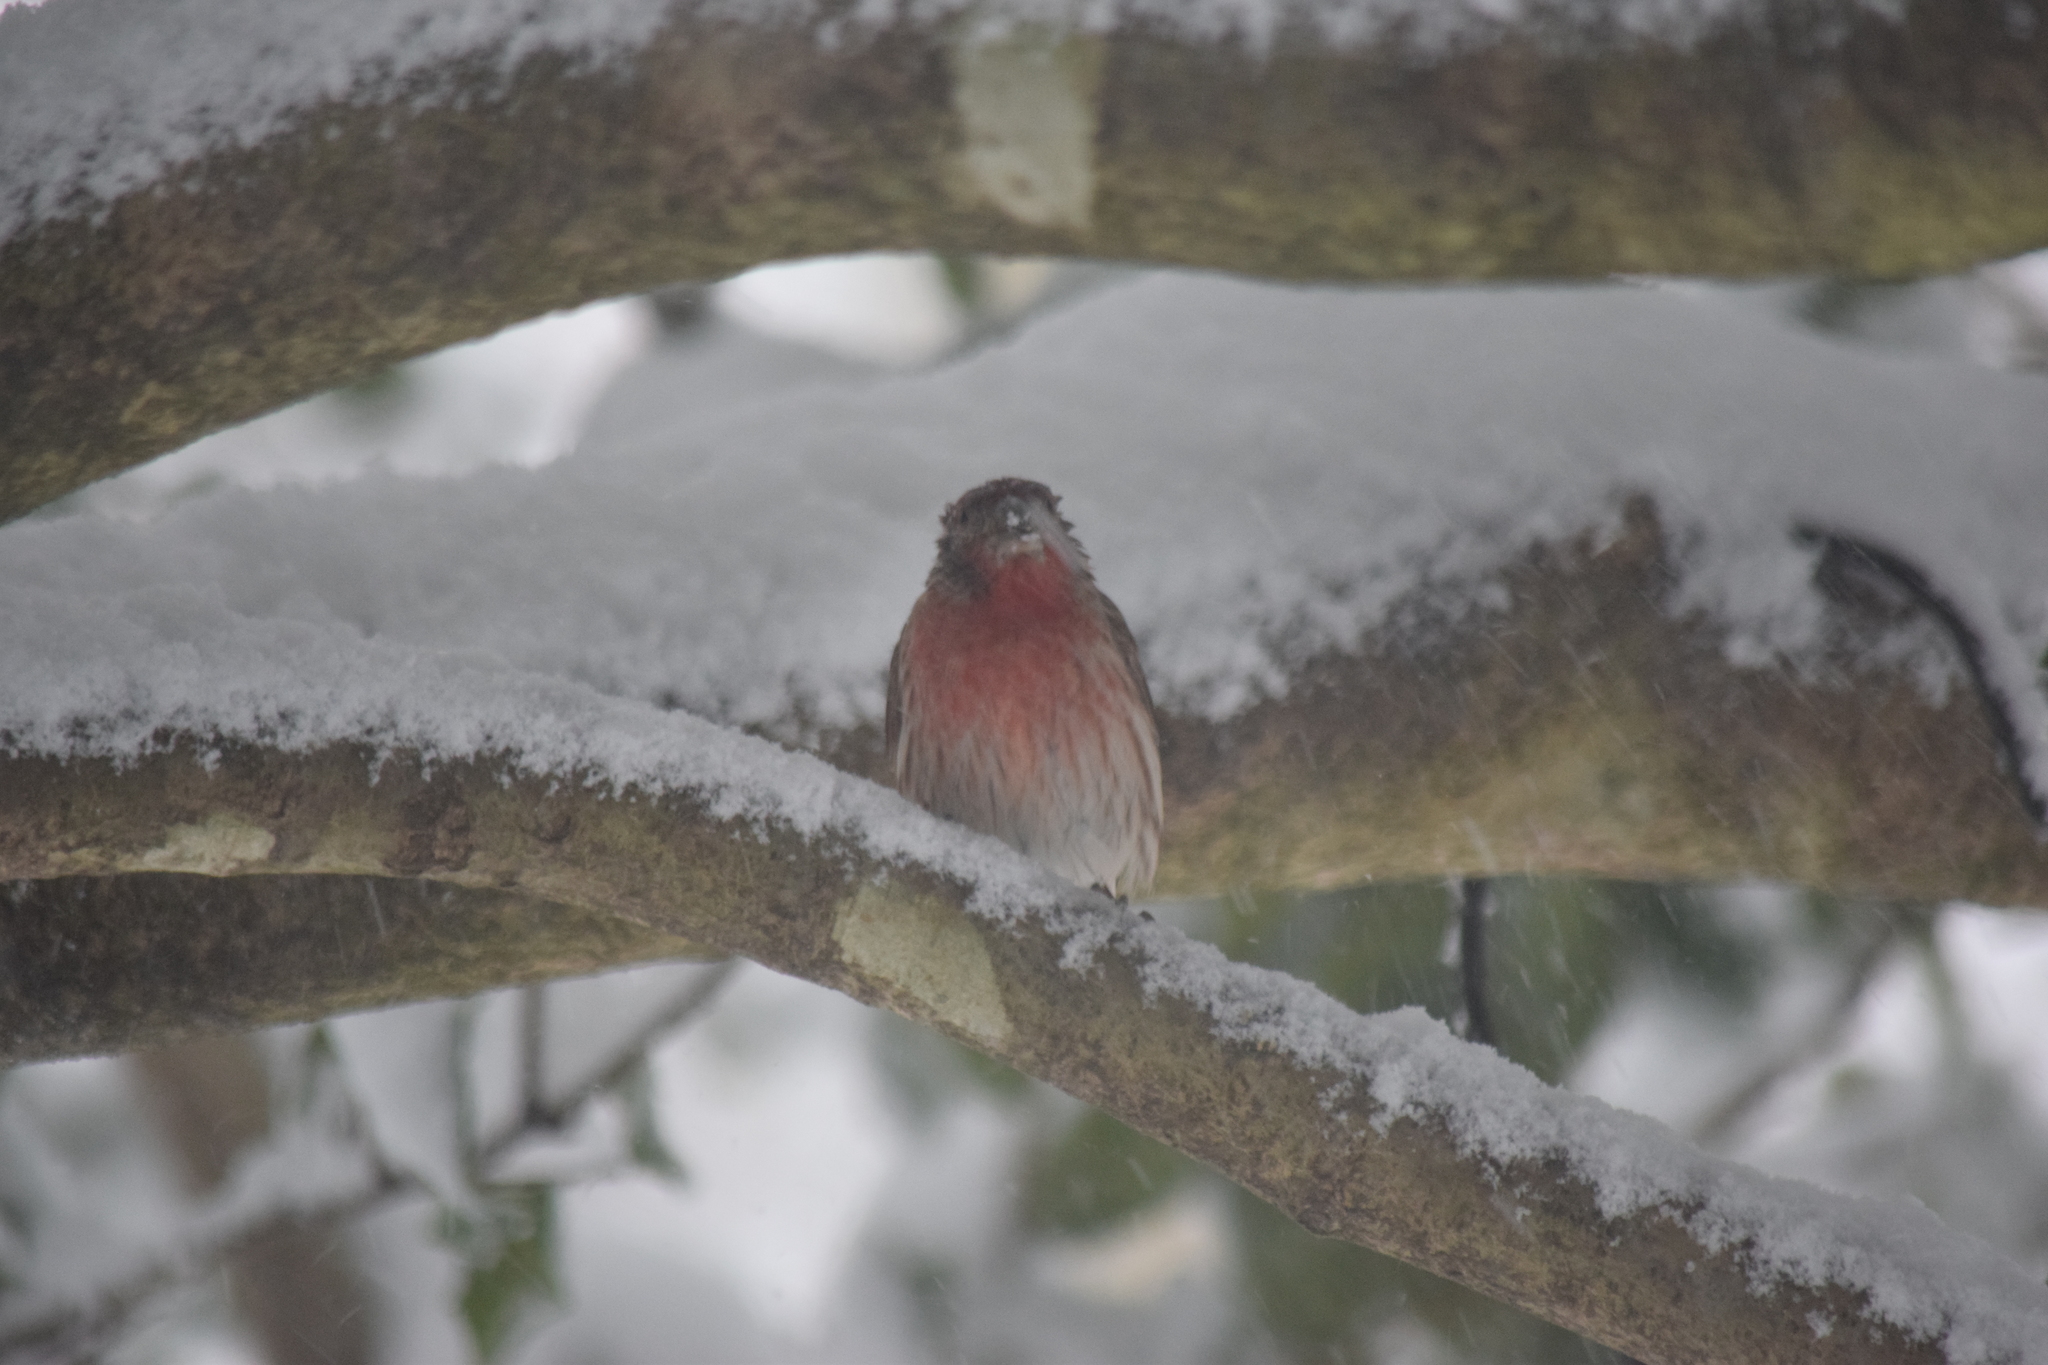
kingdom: Animalia
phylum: Chordata
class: Aves
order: Passeriformes
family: Fringillidae
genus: Haemorhous
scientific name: Haemorhous mexicanus
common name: House finch
